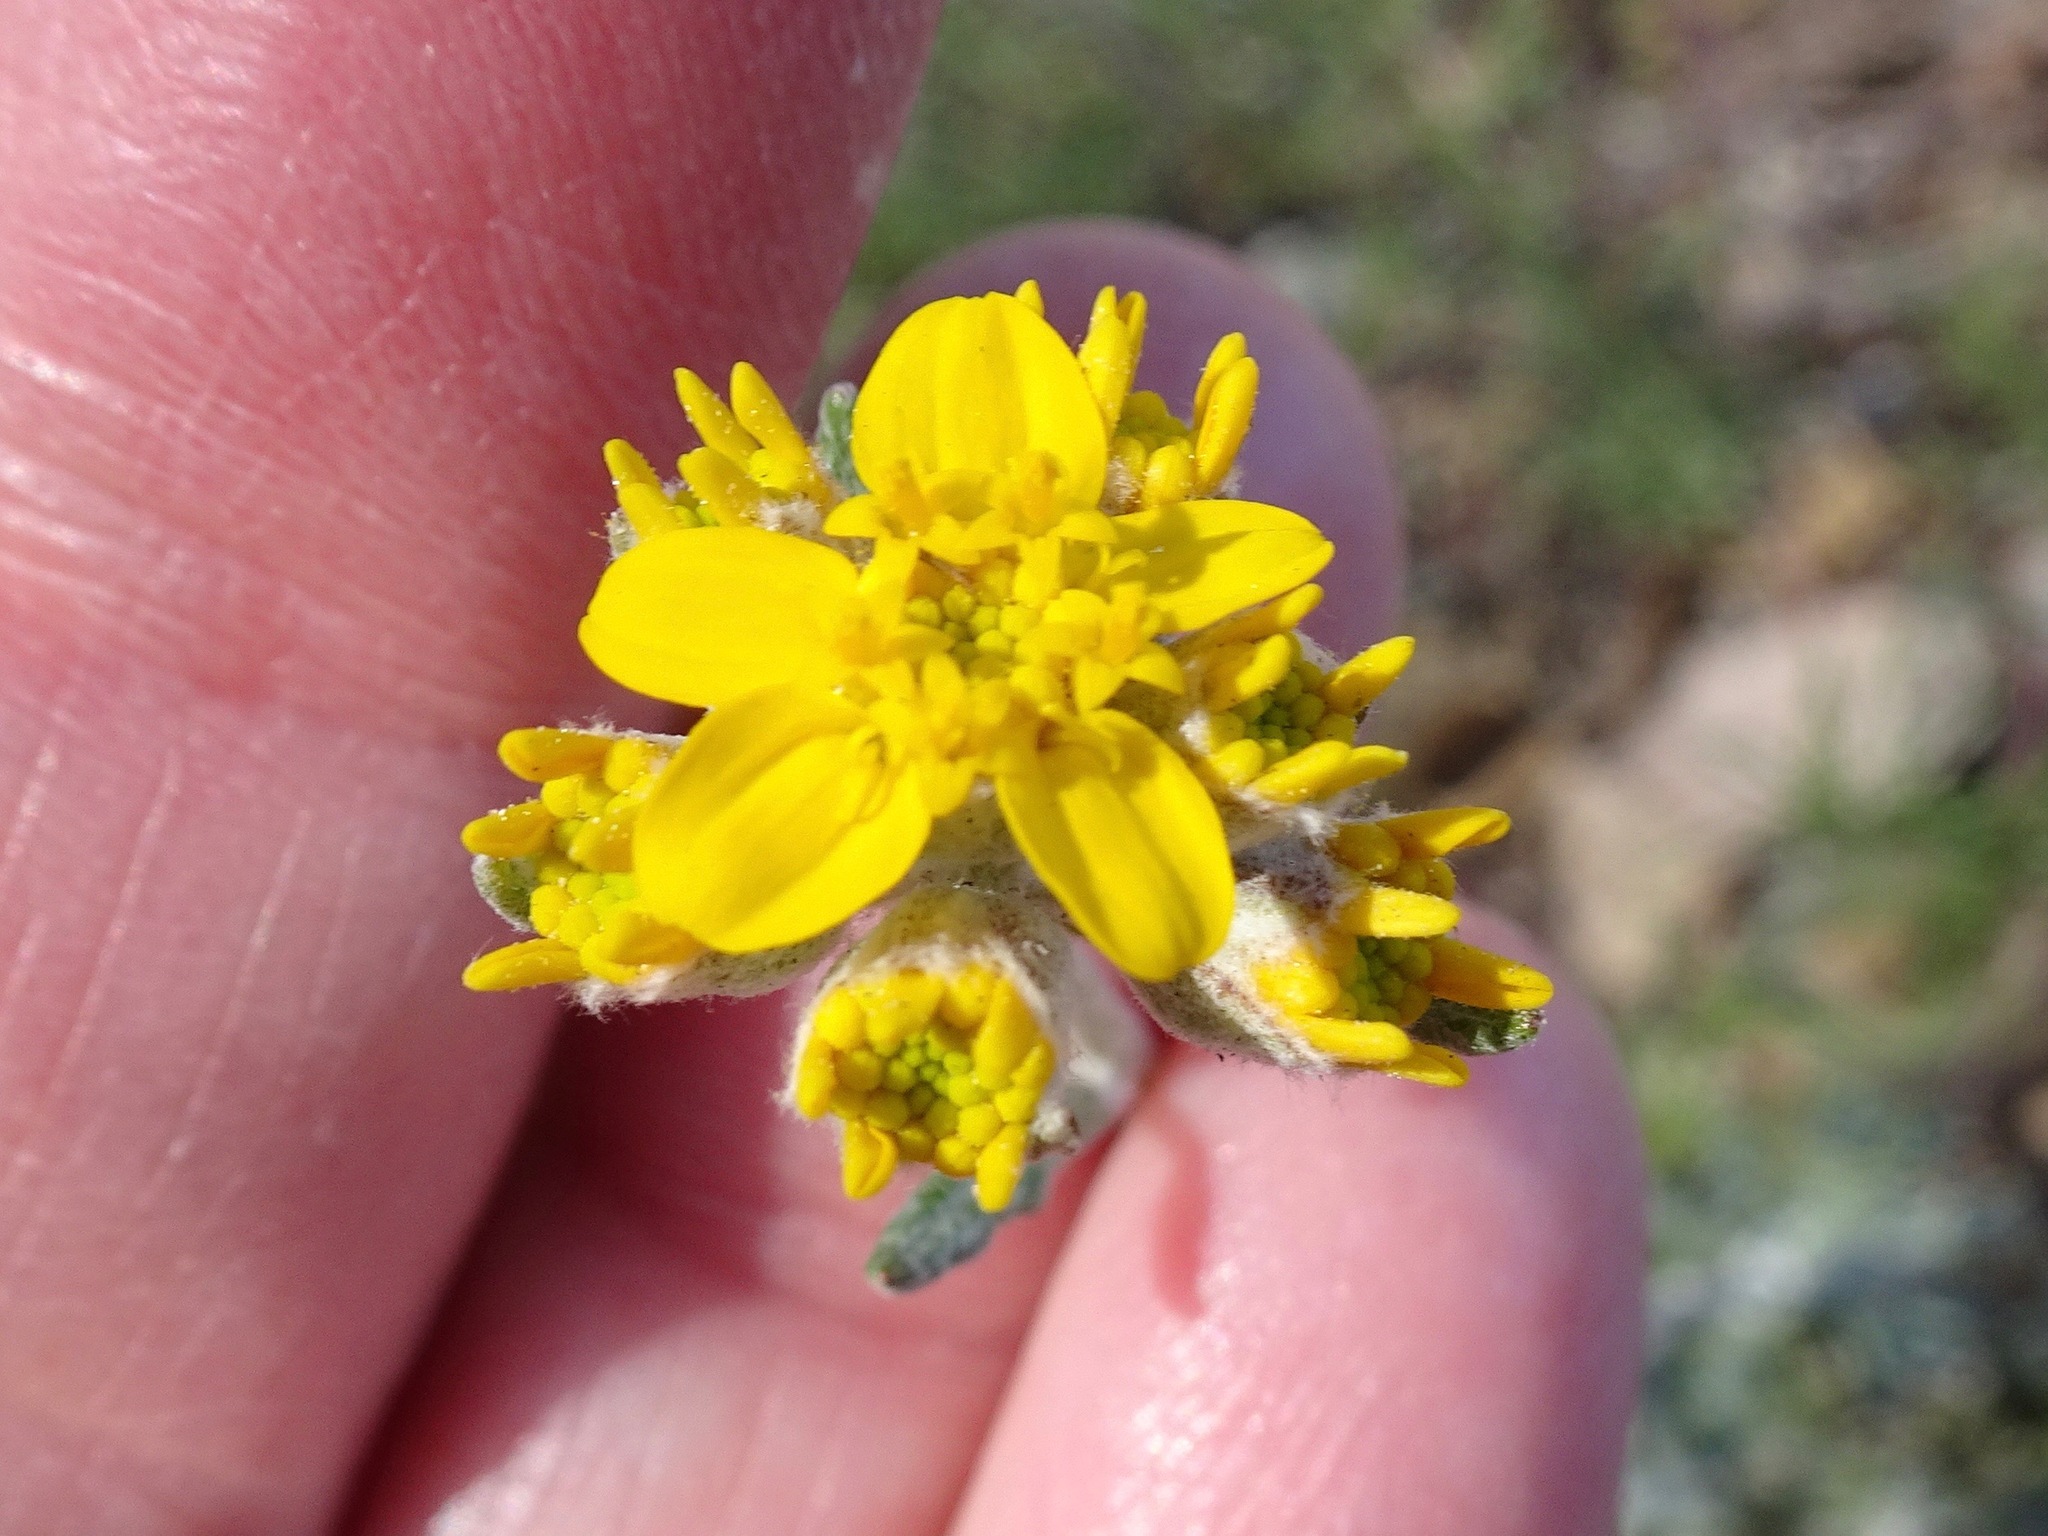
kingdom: Plantae
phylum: Tracheophyta
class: Magnoliopsida
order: Asterales
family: Asteraceae
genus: Eriophyllum
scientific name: Eriophyllum confertiflorum
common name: Golden-yarrow
